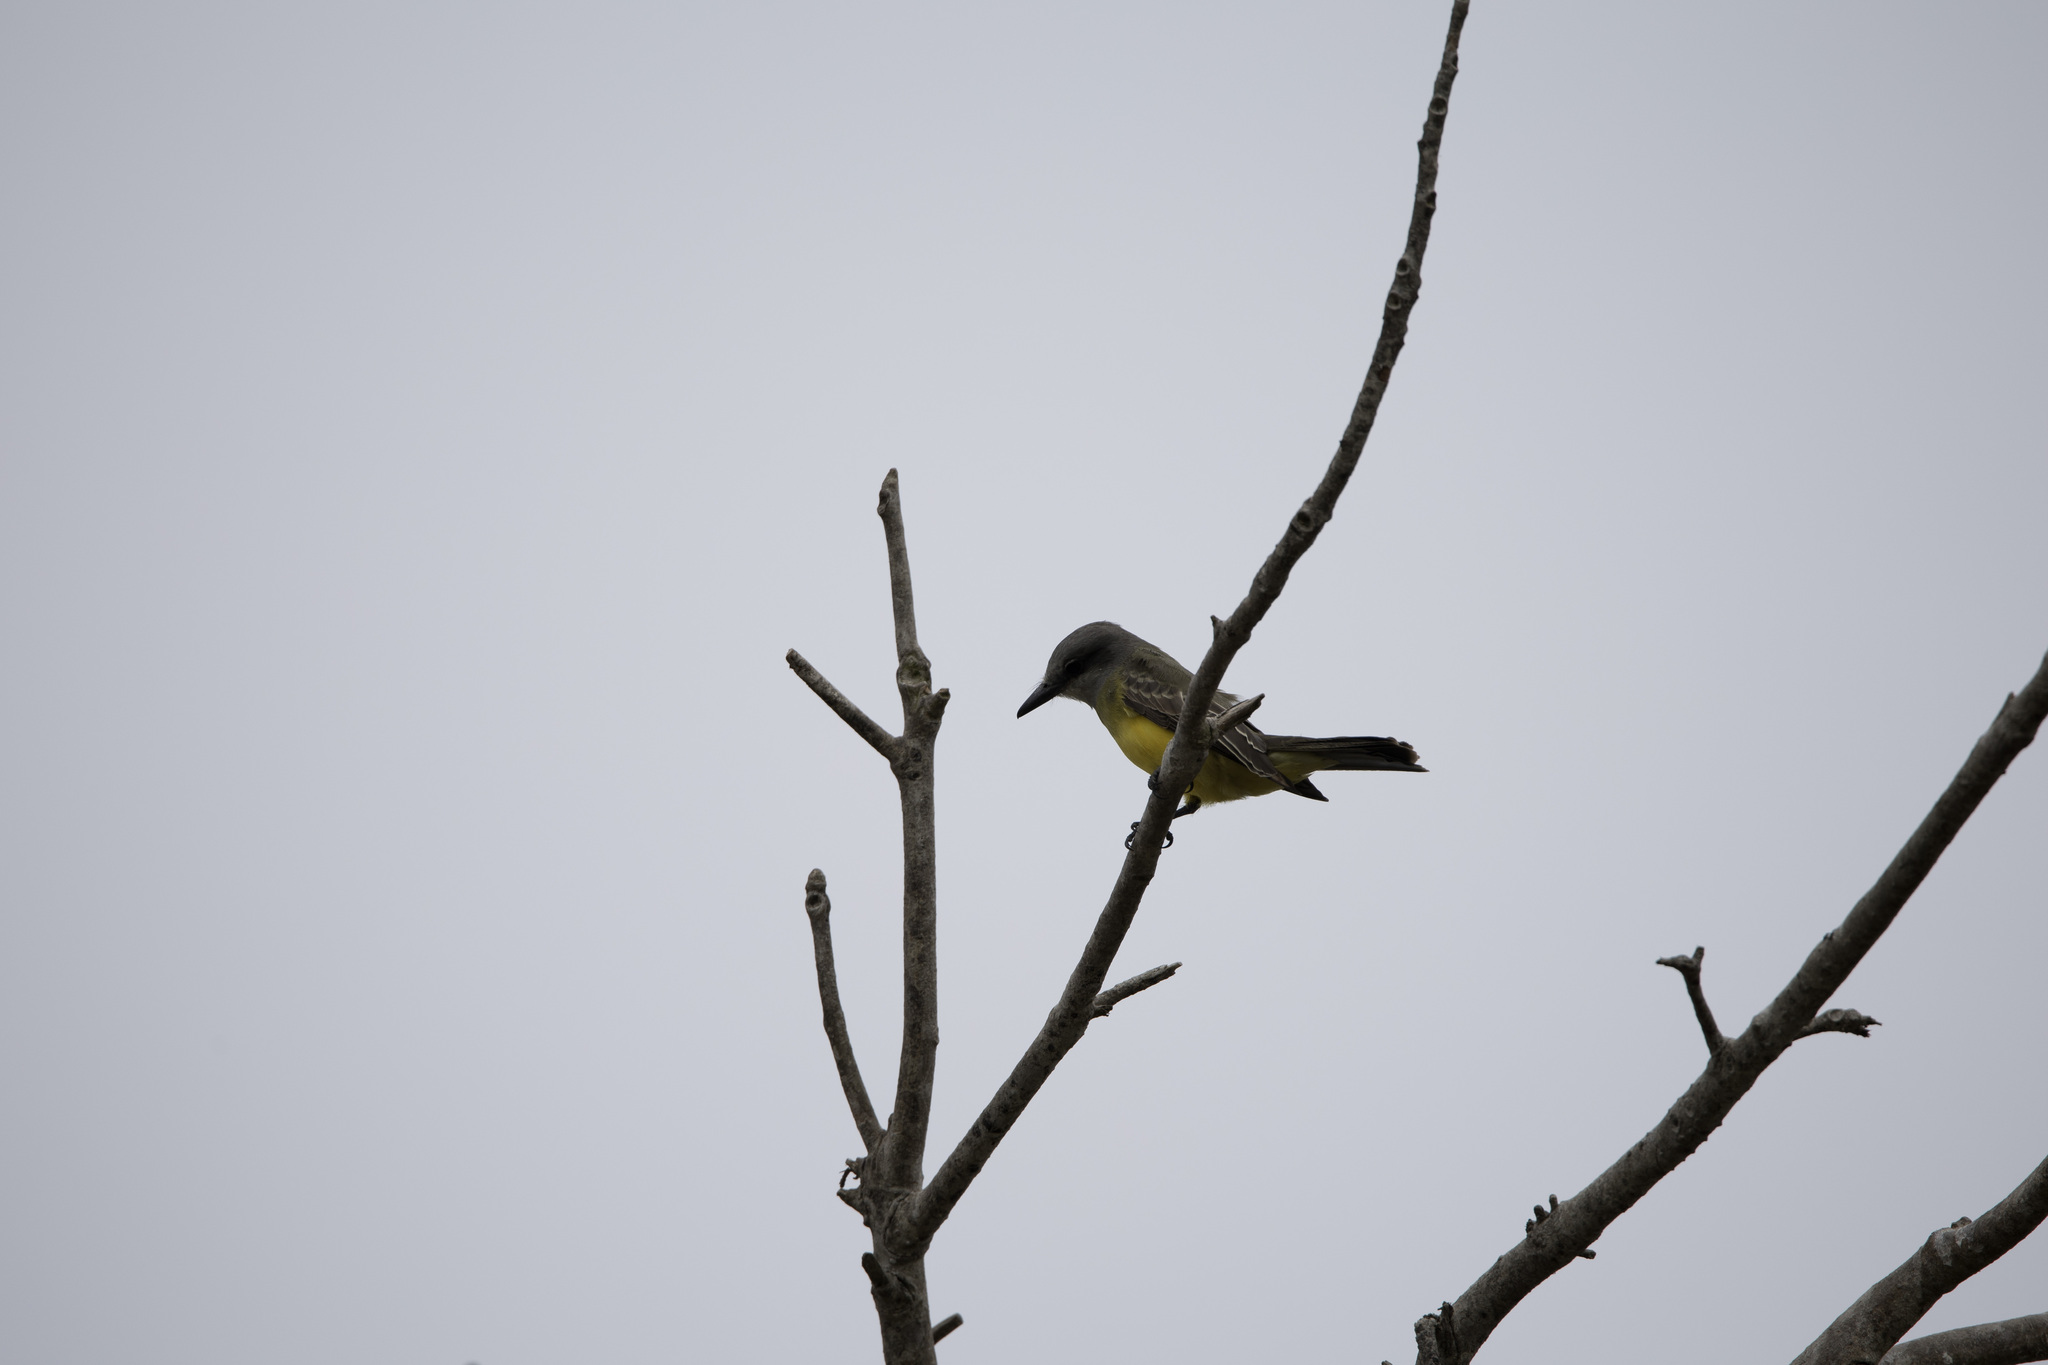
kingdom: Animalia
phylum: Chordata
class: Aves
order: Passeriformes
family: Tyrannidae
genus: Tyrannus
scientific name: Tyrannus melancholicus
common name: Tropical kingbird
